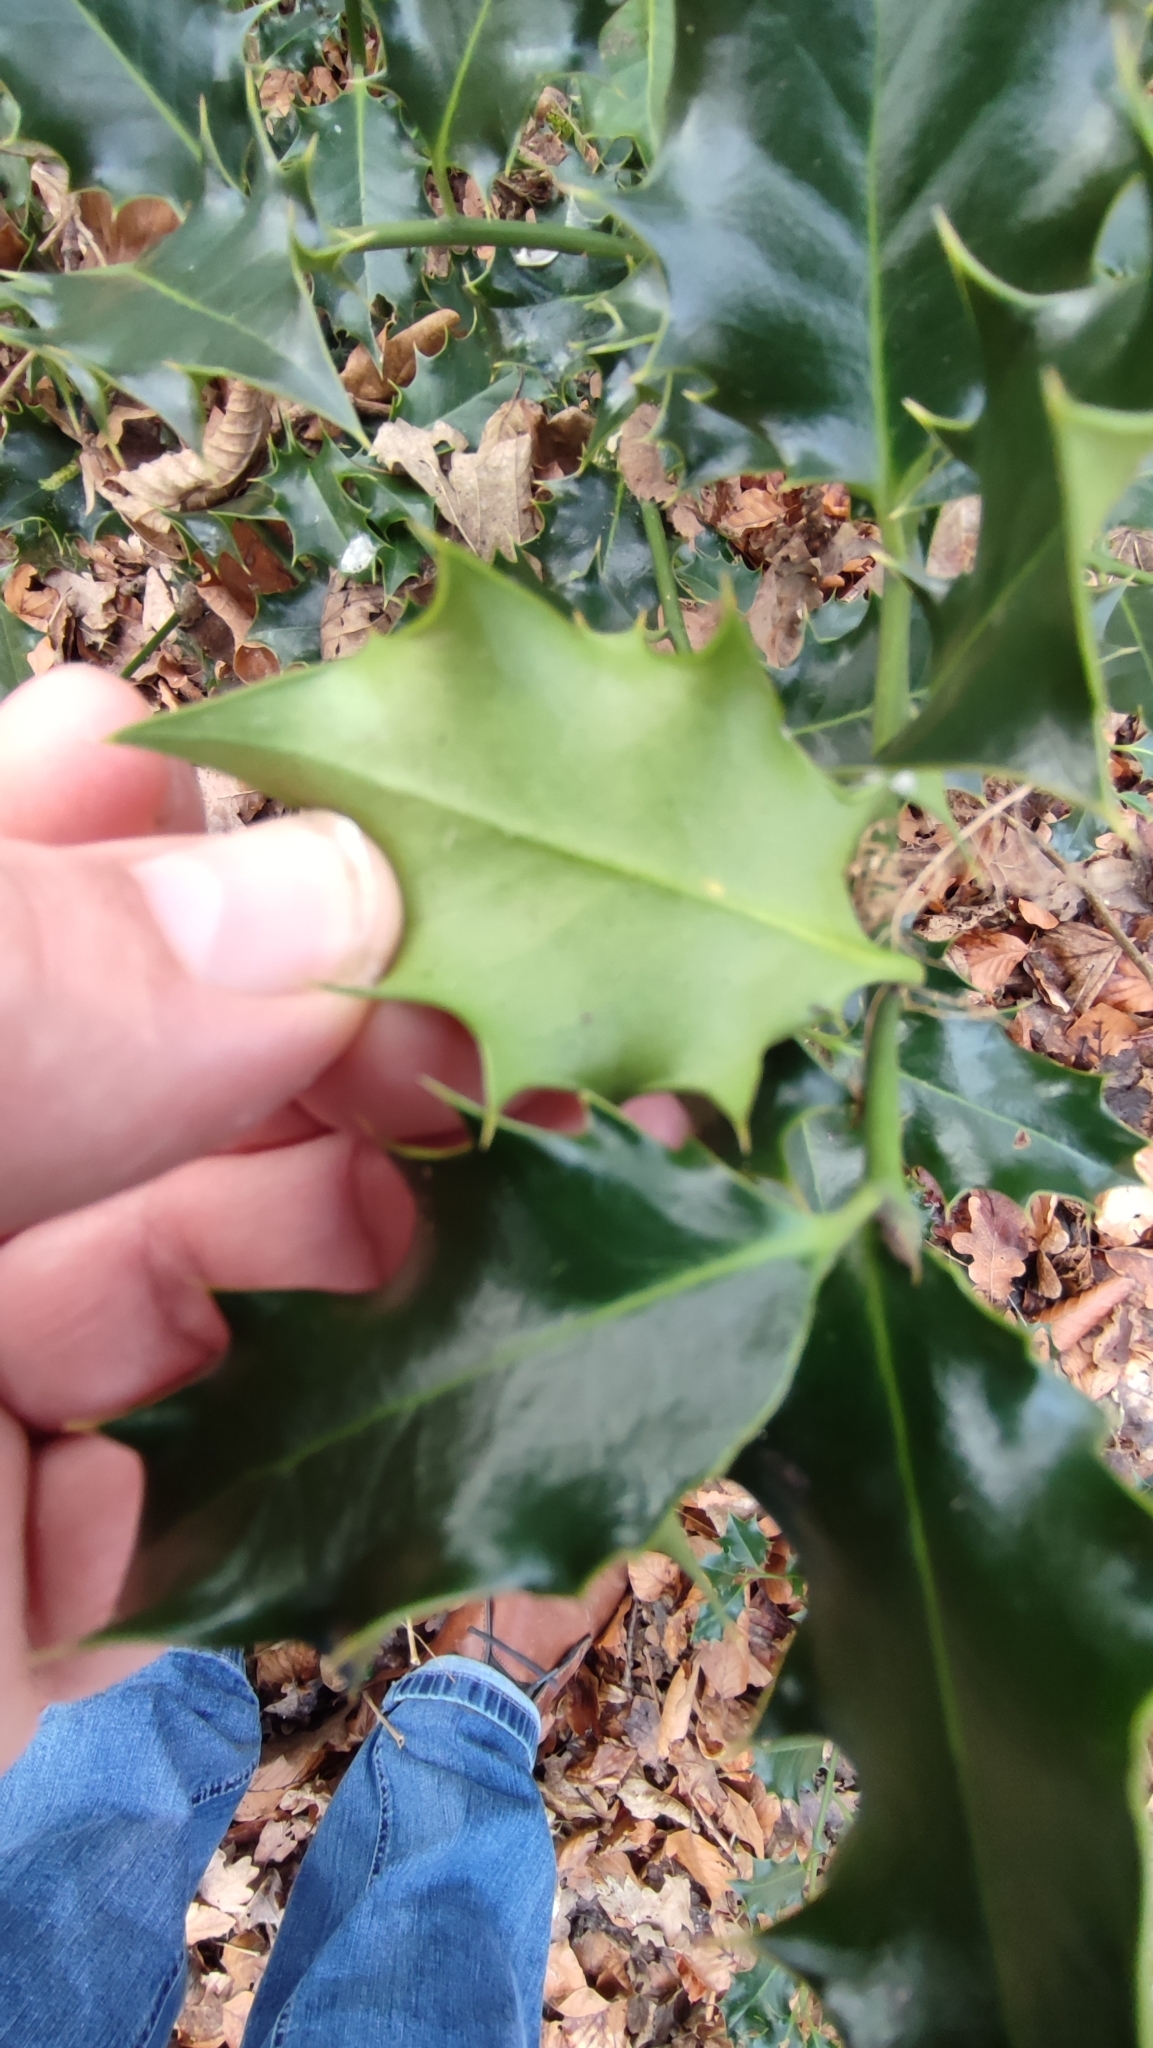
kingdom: Plantae
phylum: Tracheophyta
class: Magnoliopsida
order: Aquifoliales
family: Aquifoliaceae
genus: Ilex
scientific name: Ilex aquifolium
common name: English holly
